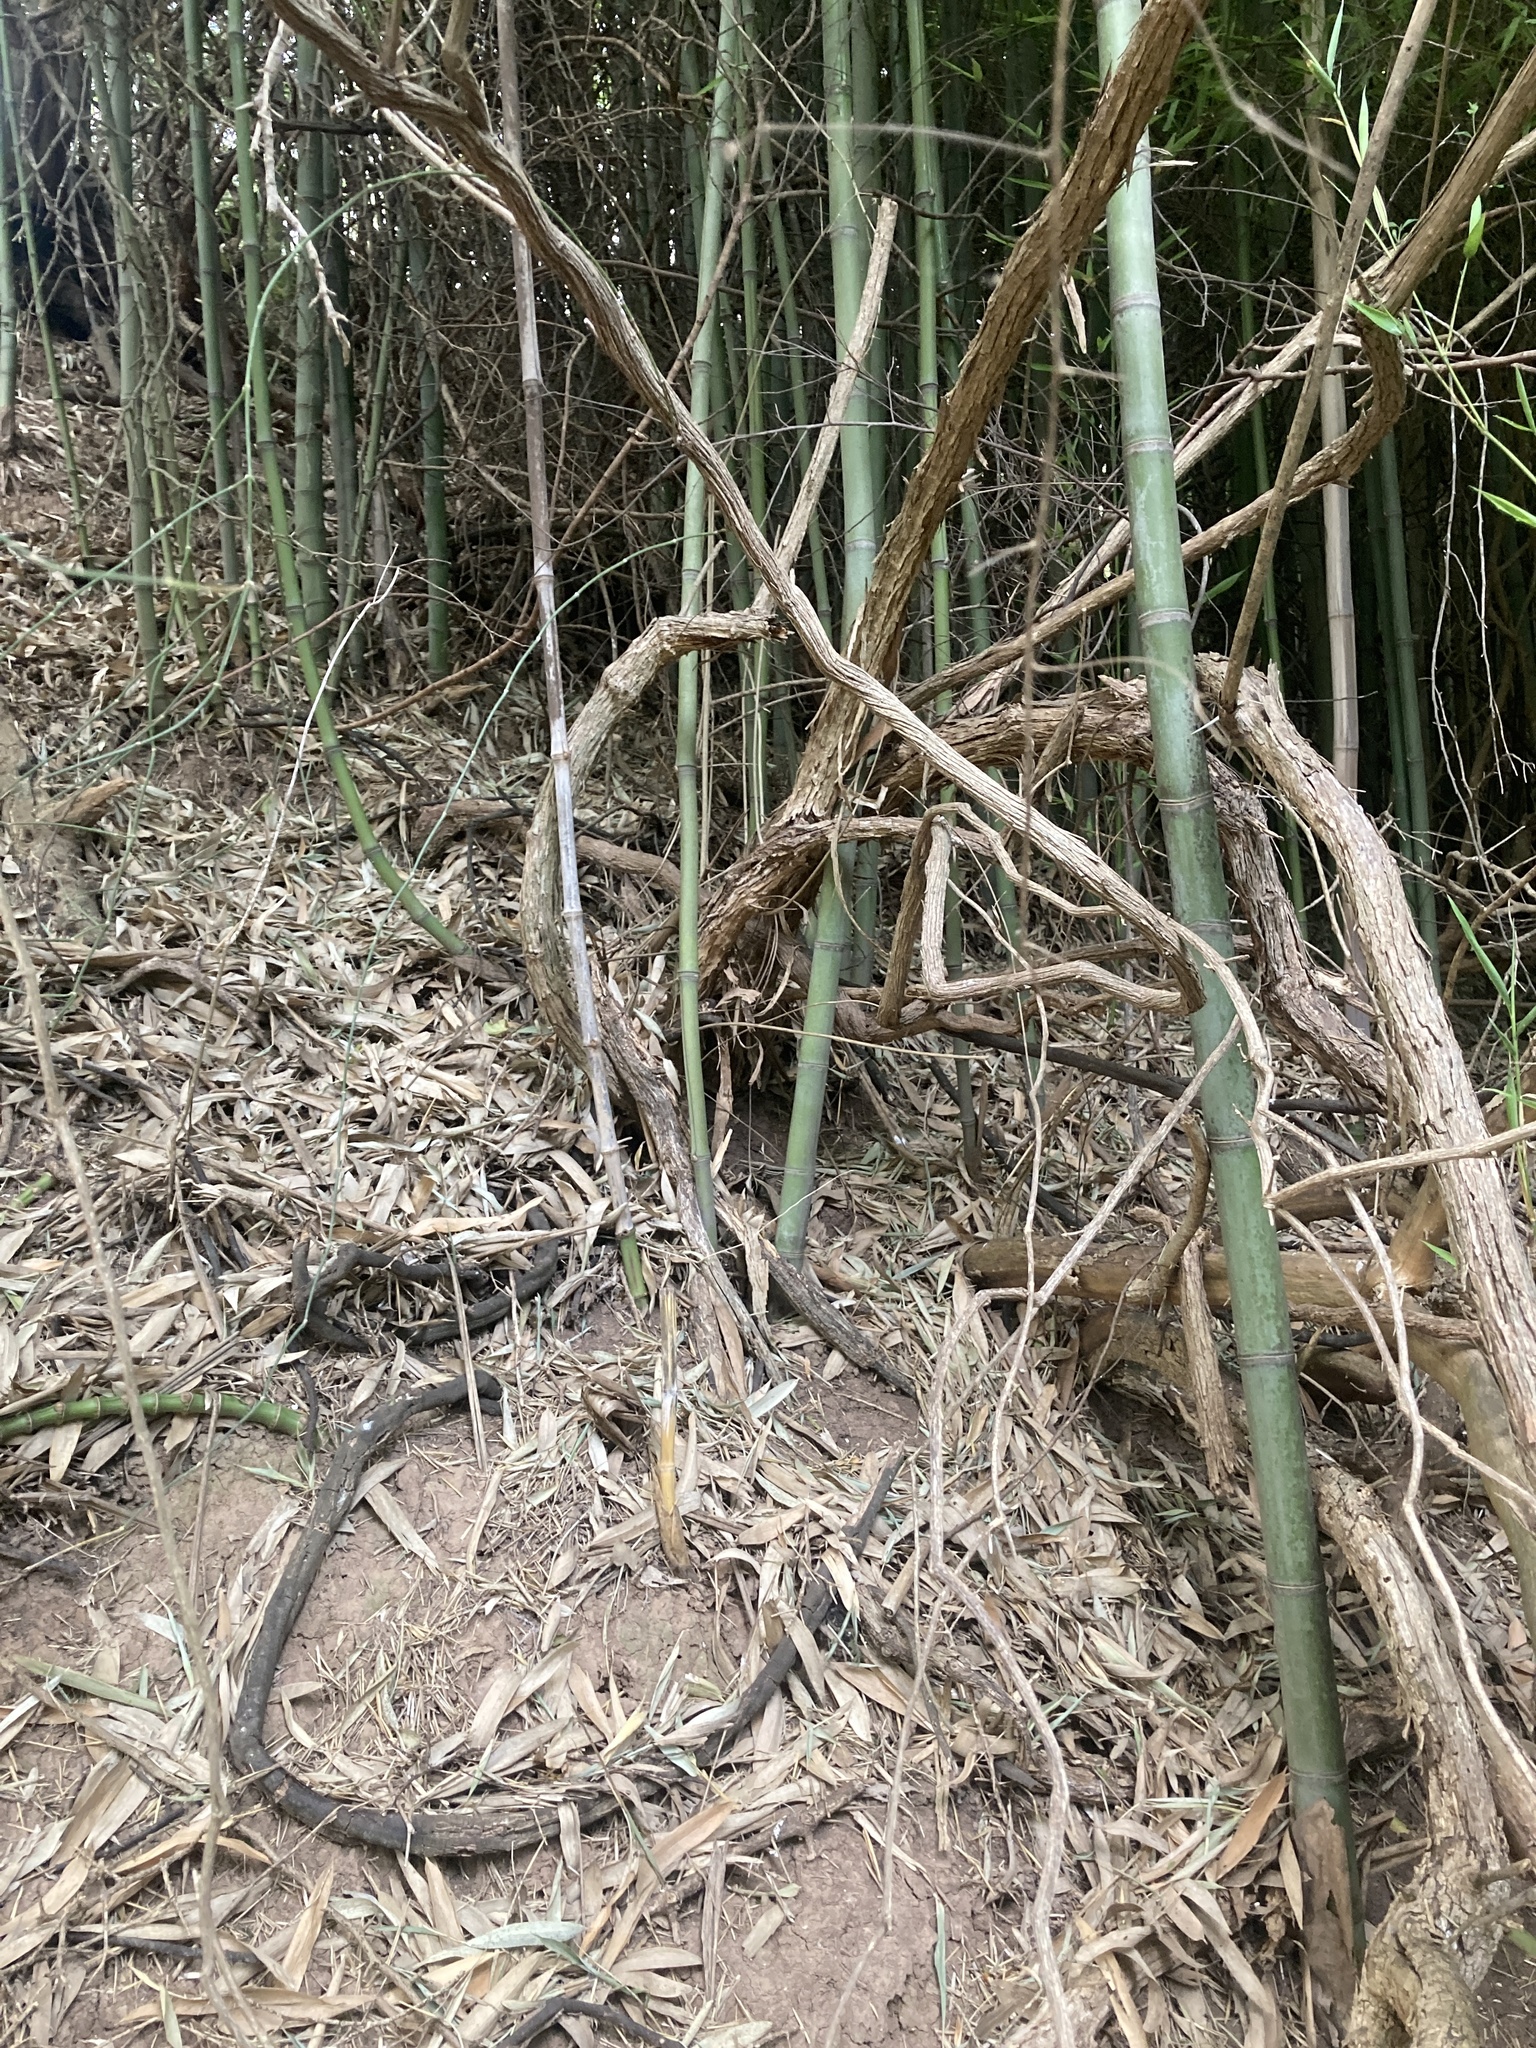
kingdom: Plantae
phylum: Tracheophyta
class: Gnetopsida
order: Ephedrales
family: Ephedraceae
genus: Ephedra
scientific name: Ephedra tweedieana
